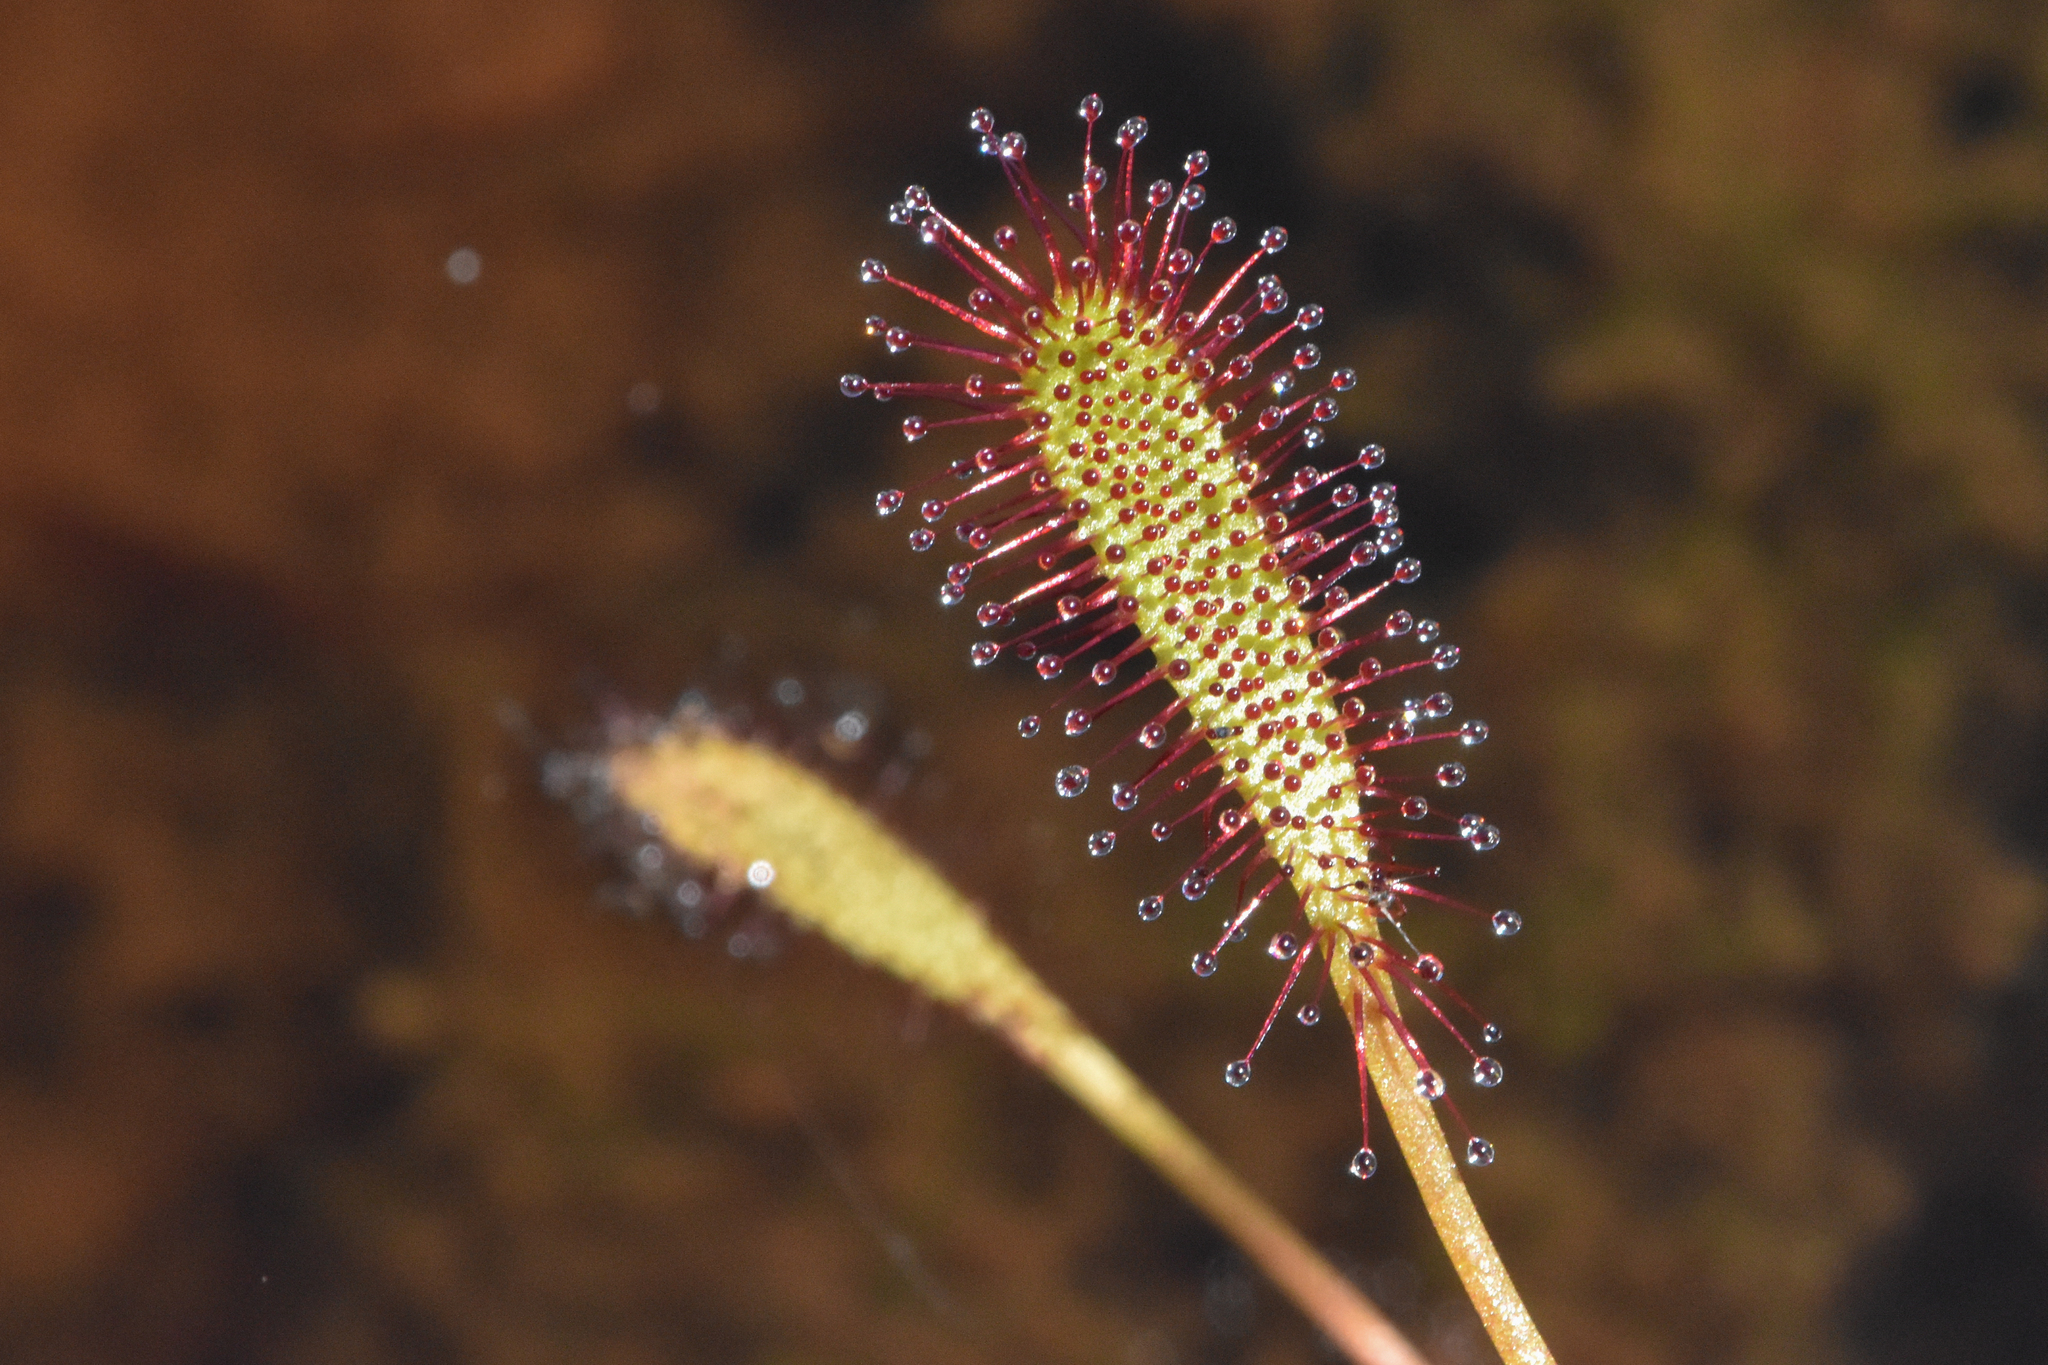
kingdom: Plantae
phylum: Tracheophyta
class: Magnoliopsida
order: Caryophyllales
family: Droseraceae
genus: Drosera
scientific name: Drosera anglica
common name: Great sundew
